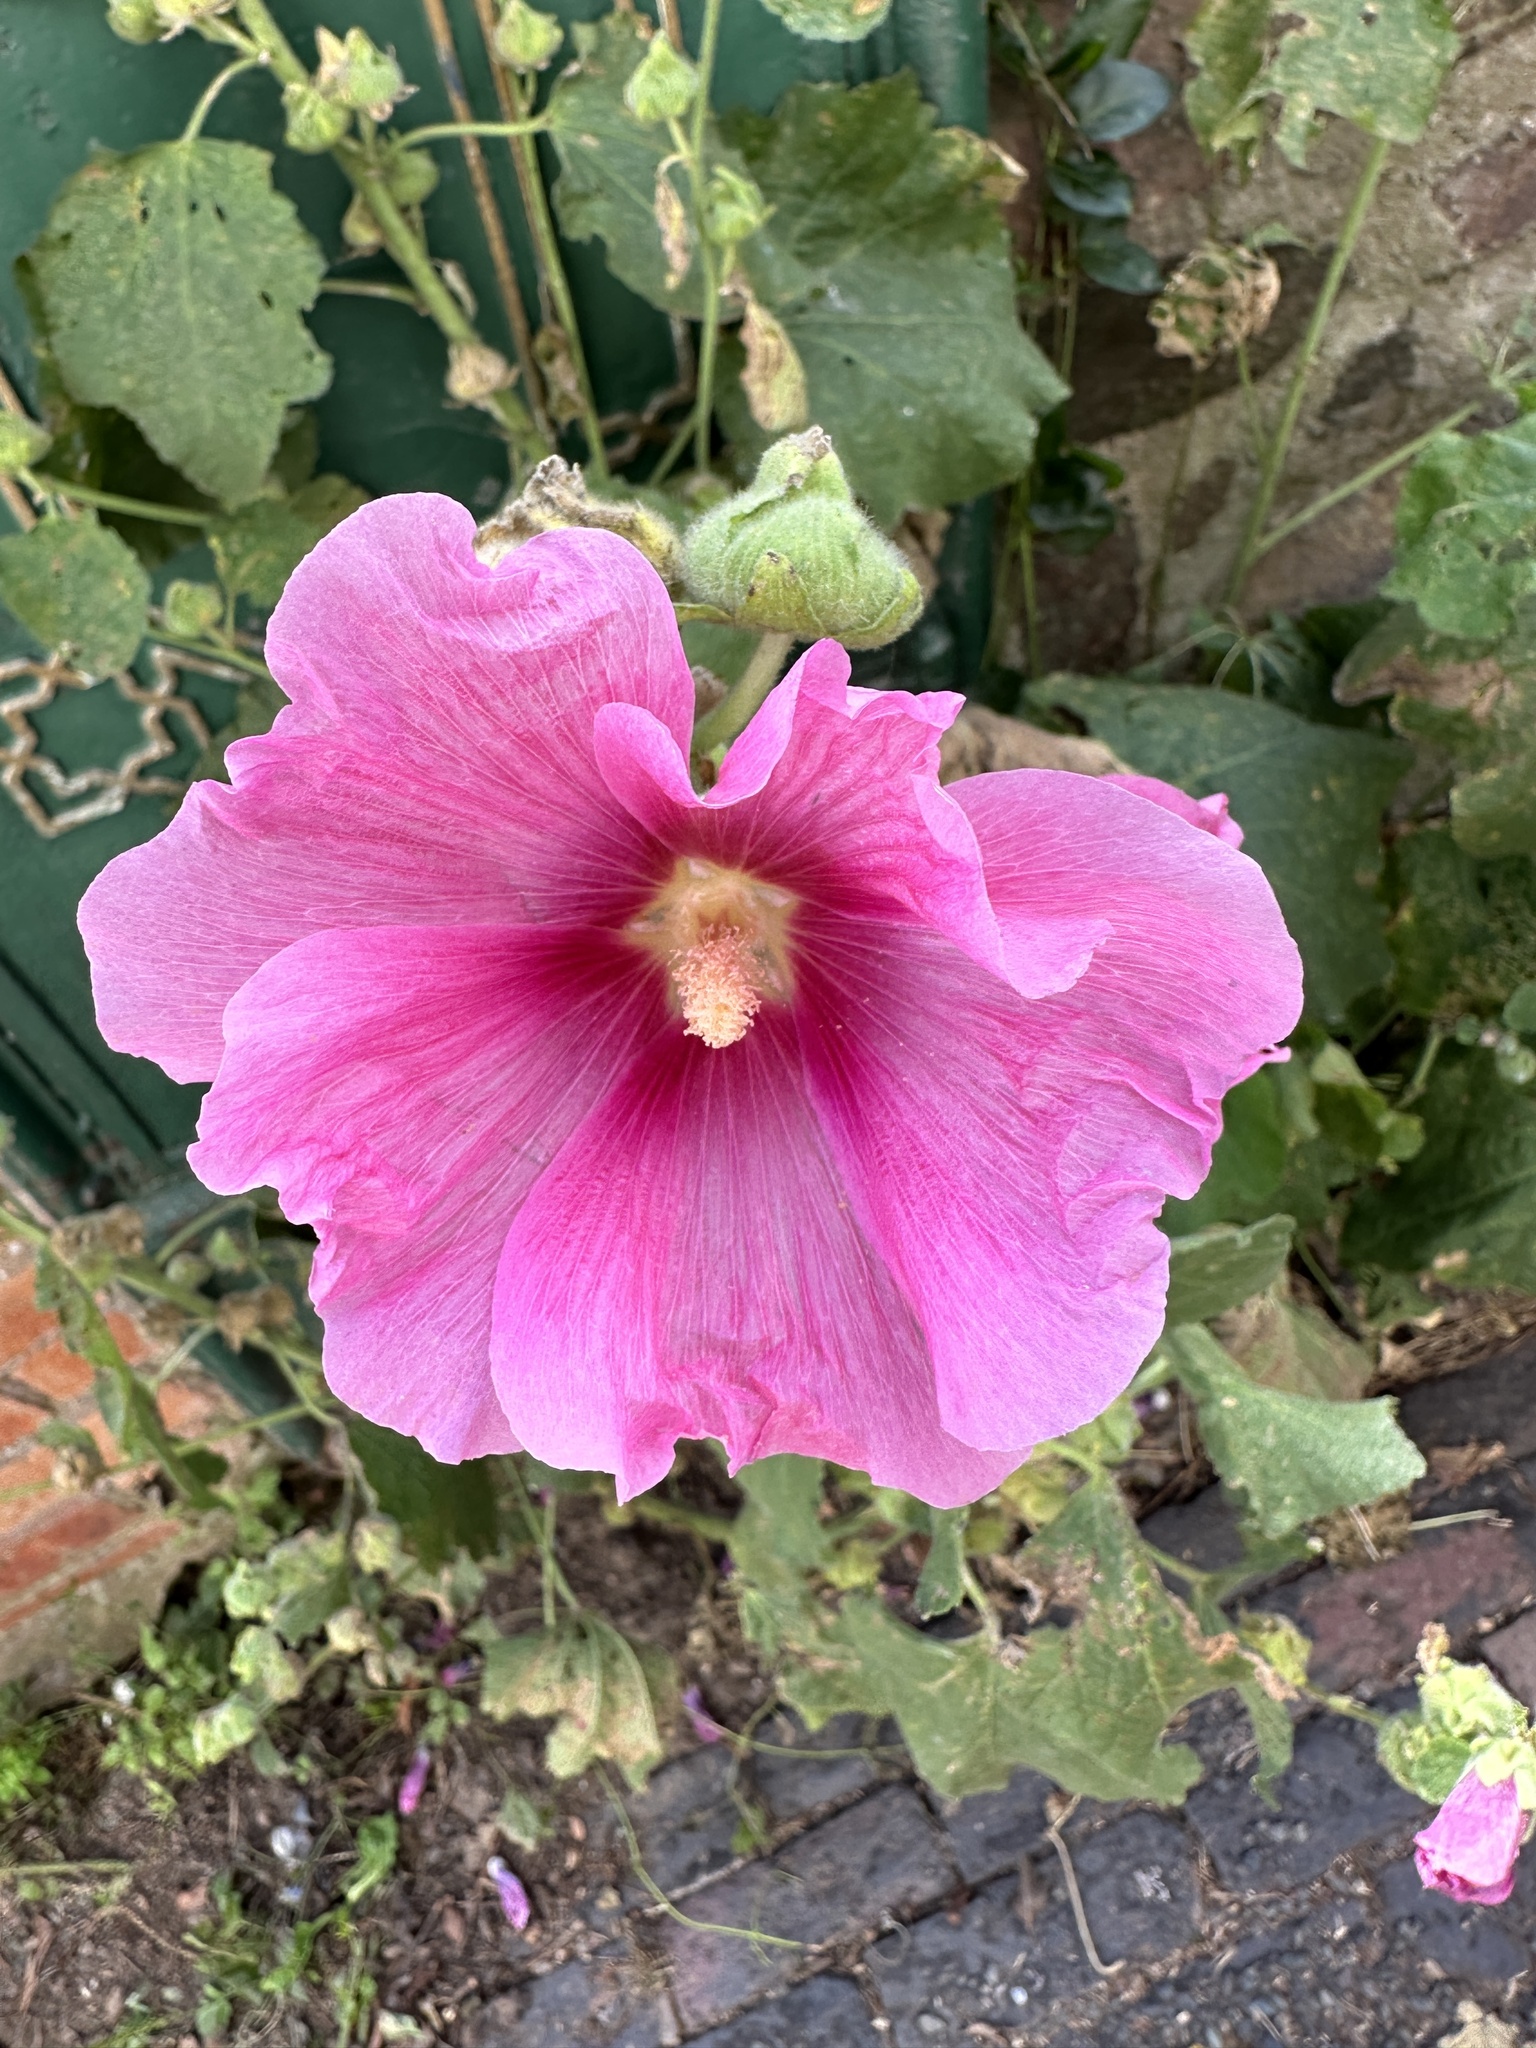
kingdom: Plantae
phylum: Tracheophyta
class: Magnoliopsida
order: Malvales
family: Malvaceae
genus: Alcea
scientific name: Alcea rosea
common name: Hollyhock
